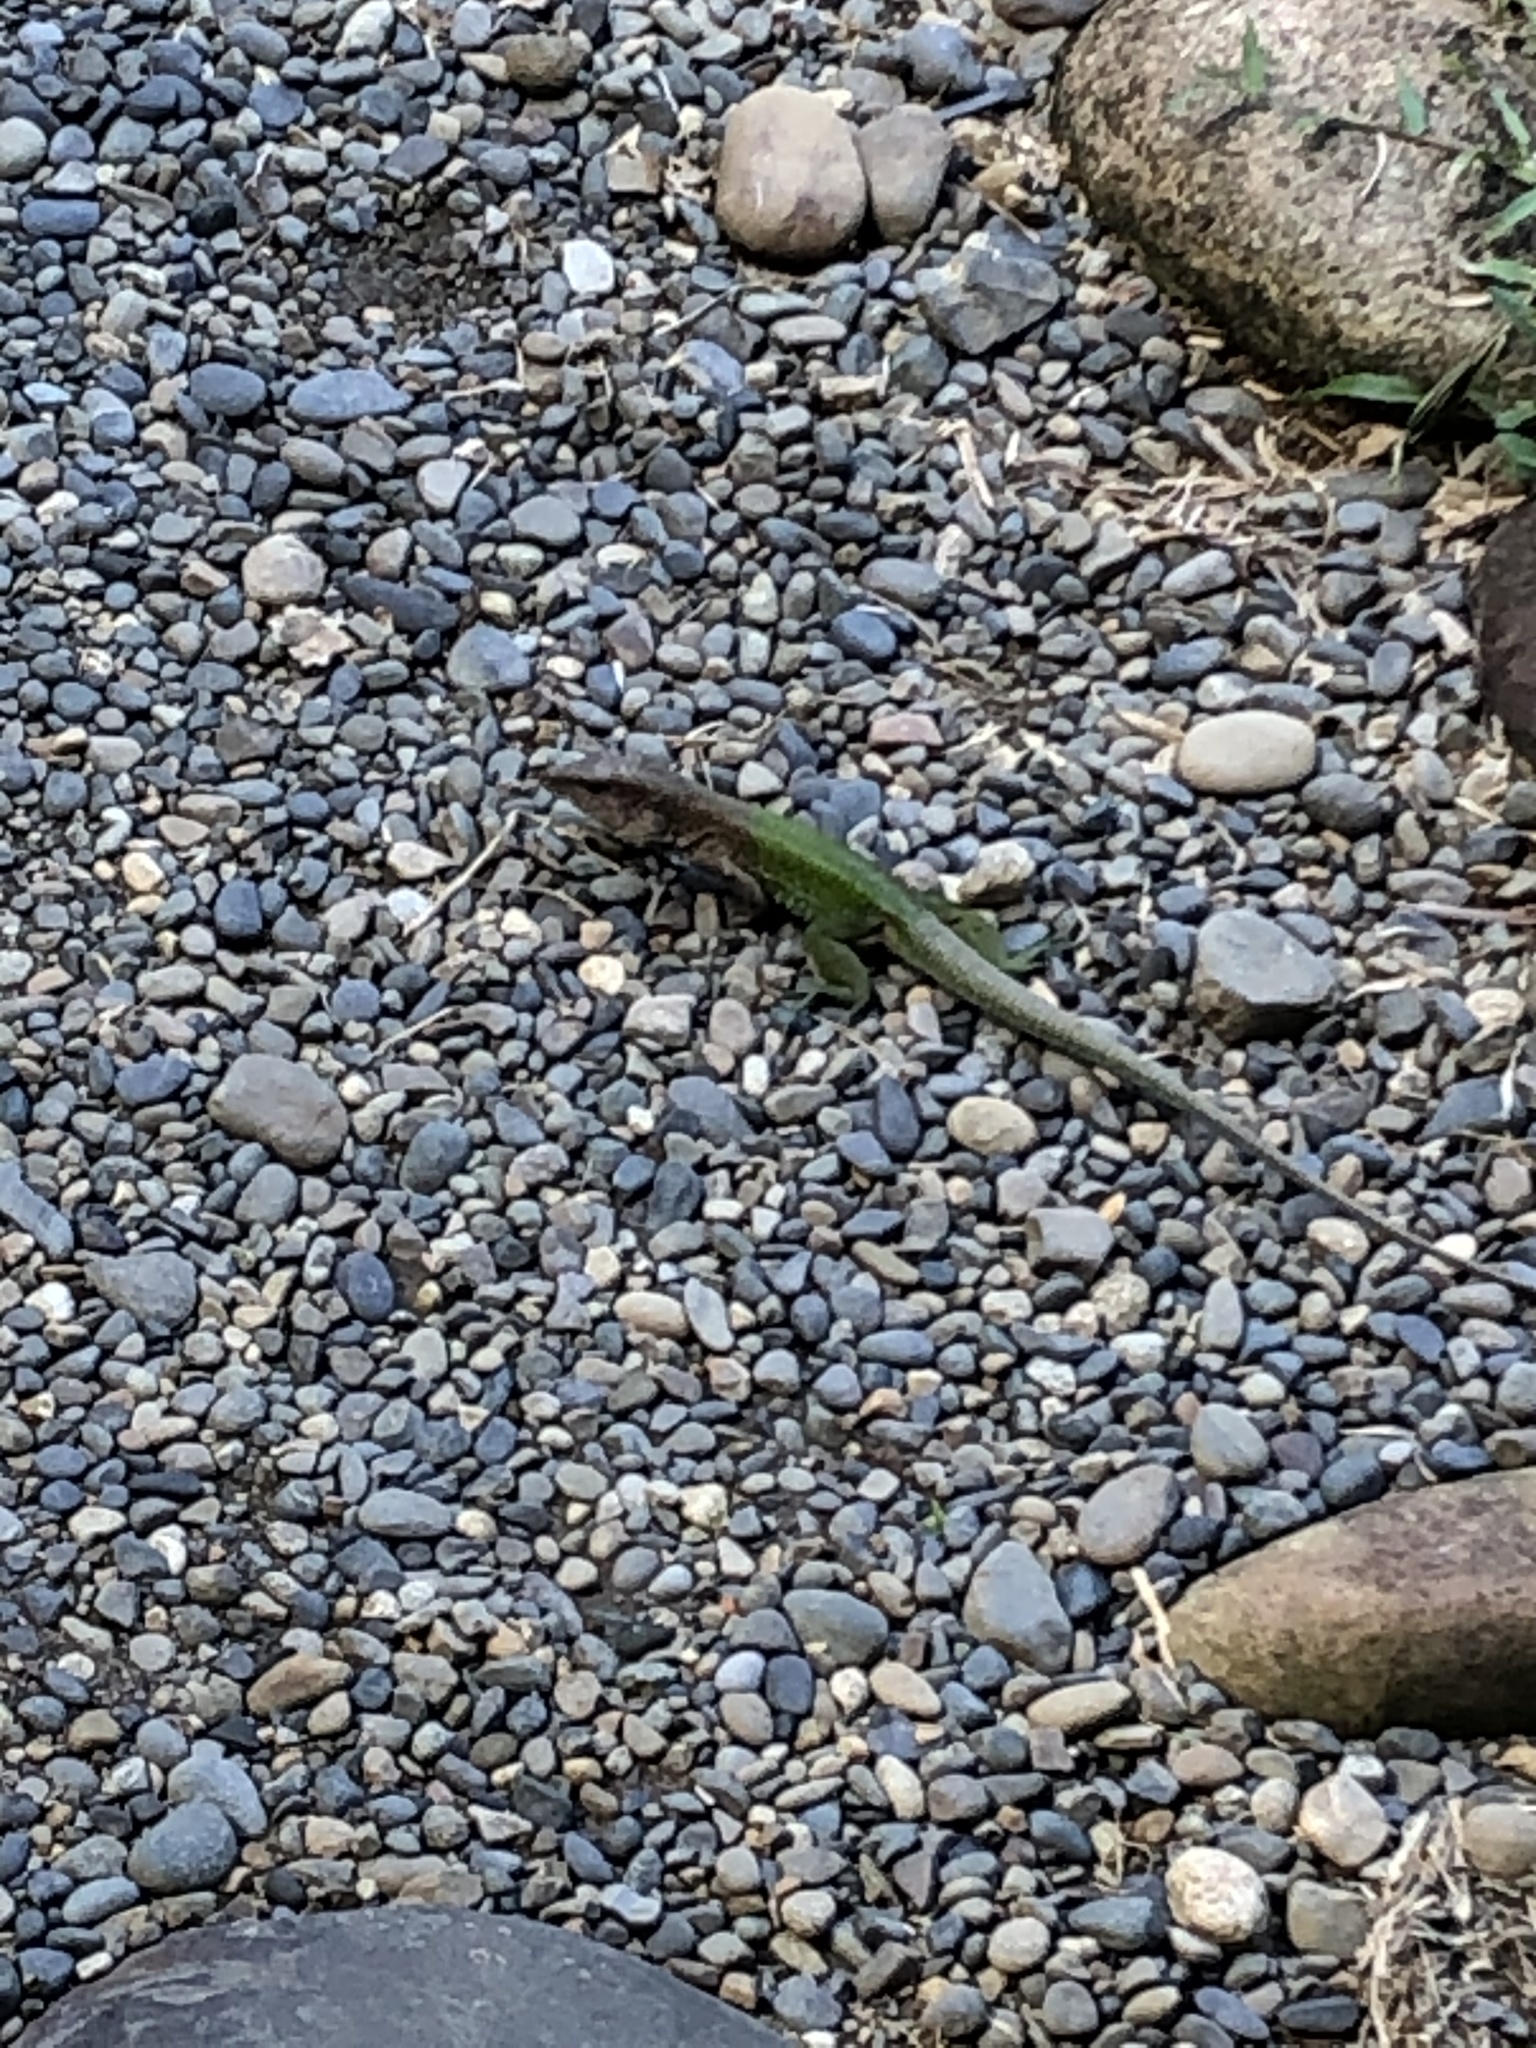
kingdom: Animalia
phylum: Chordata
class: Squamata
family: Teiidae
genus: Ameiva
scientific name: Ameiva ameiva
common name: Giant ameiva
